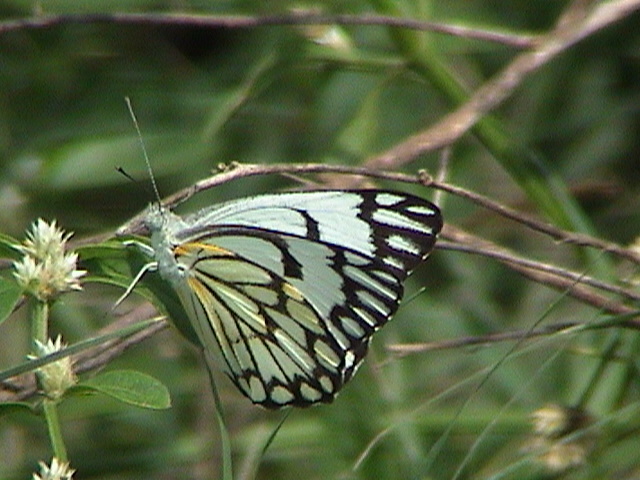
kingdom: Animalia
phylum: Arthropoda
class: Insecta
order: Lepidoptera
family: Pieridae
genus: Belenois
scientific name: Belenois aurota
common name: Brown-veined white
